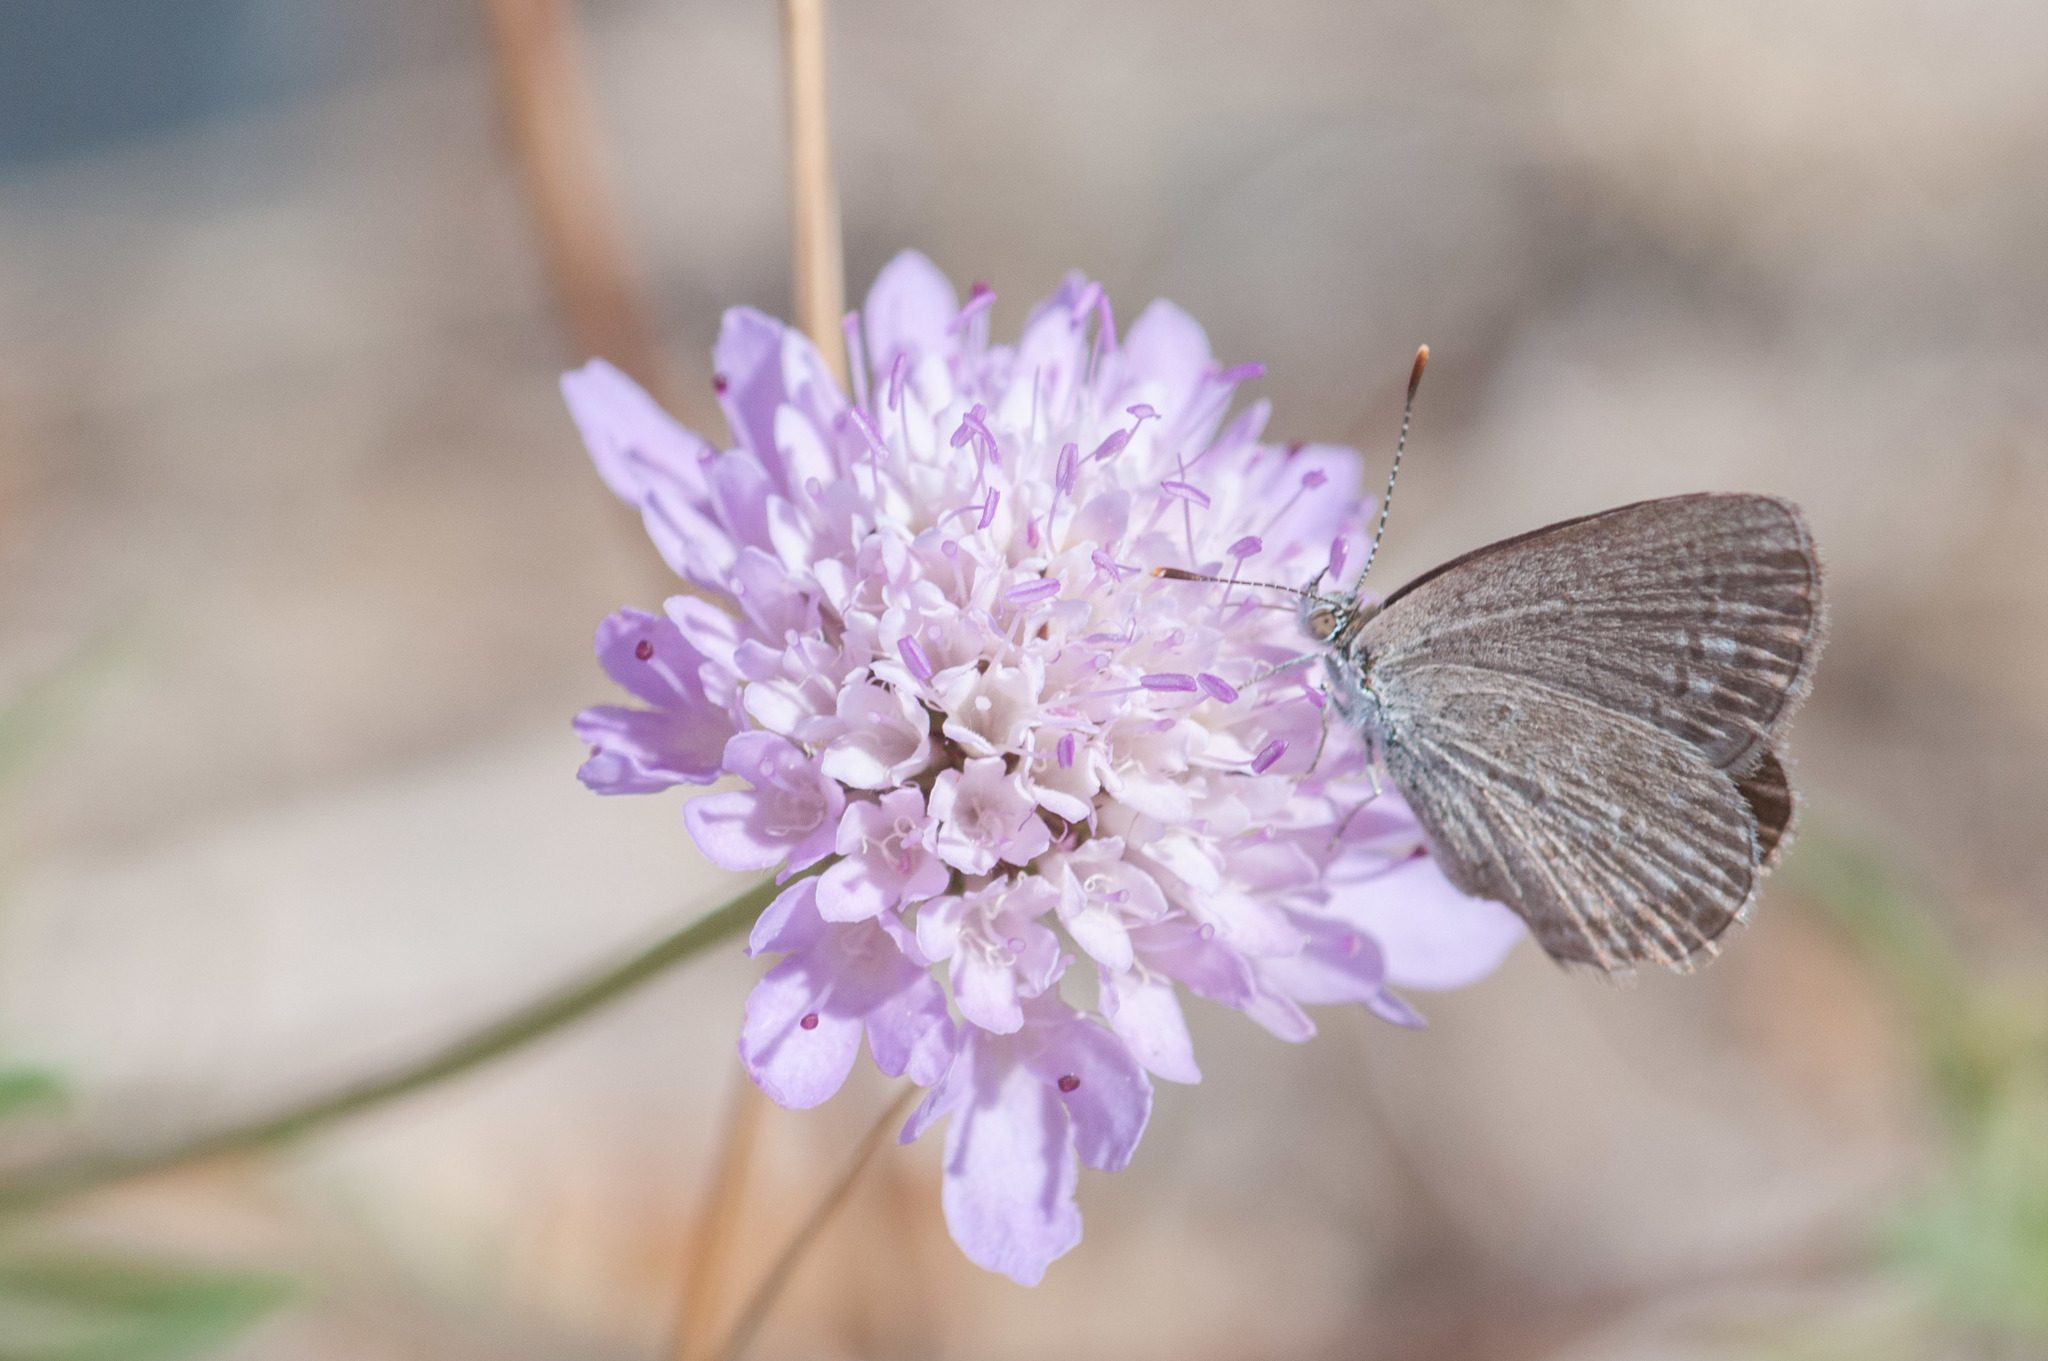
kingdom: Animalia
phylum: Arthropoda
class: Insecta
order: Lepidoptera
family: Lycaenidae
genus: Zizina
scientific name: Zizina labradus
